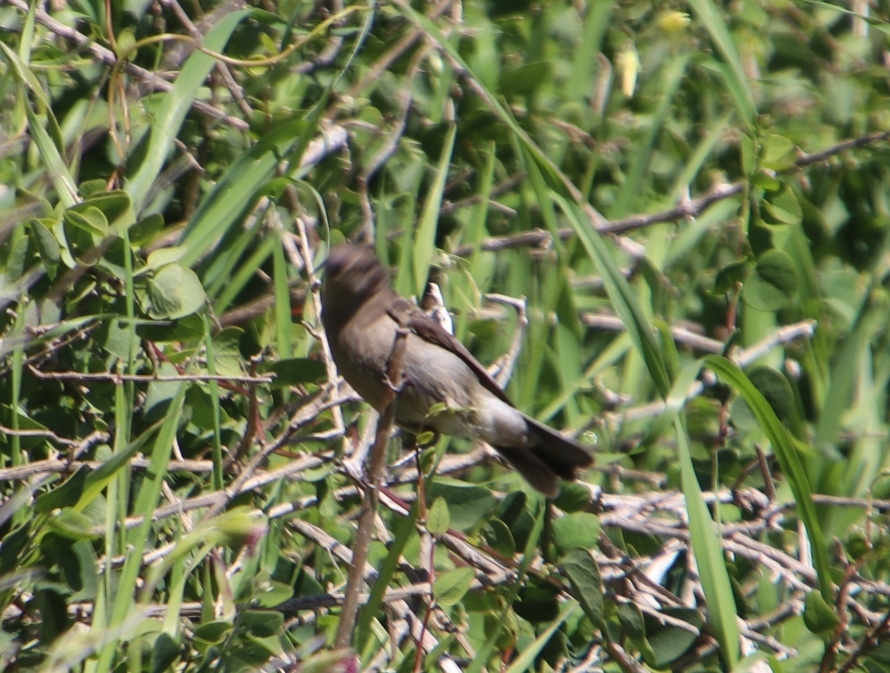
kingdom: Animalia
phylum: Chordata
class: Aves
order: Passeriformes
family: Nectariniidae
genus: Cinnyris
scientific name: Cinnyris chalybeus
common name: Southern double-collared sunbird
